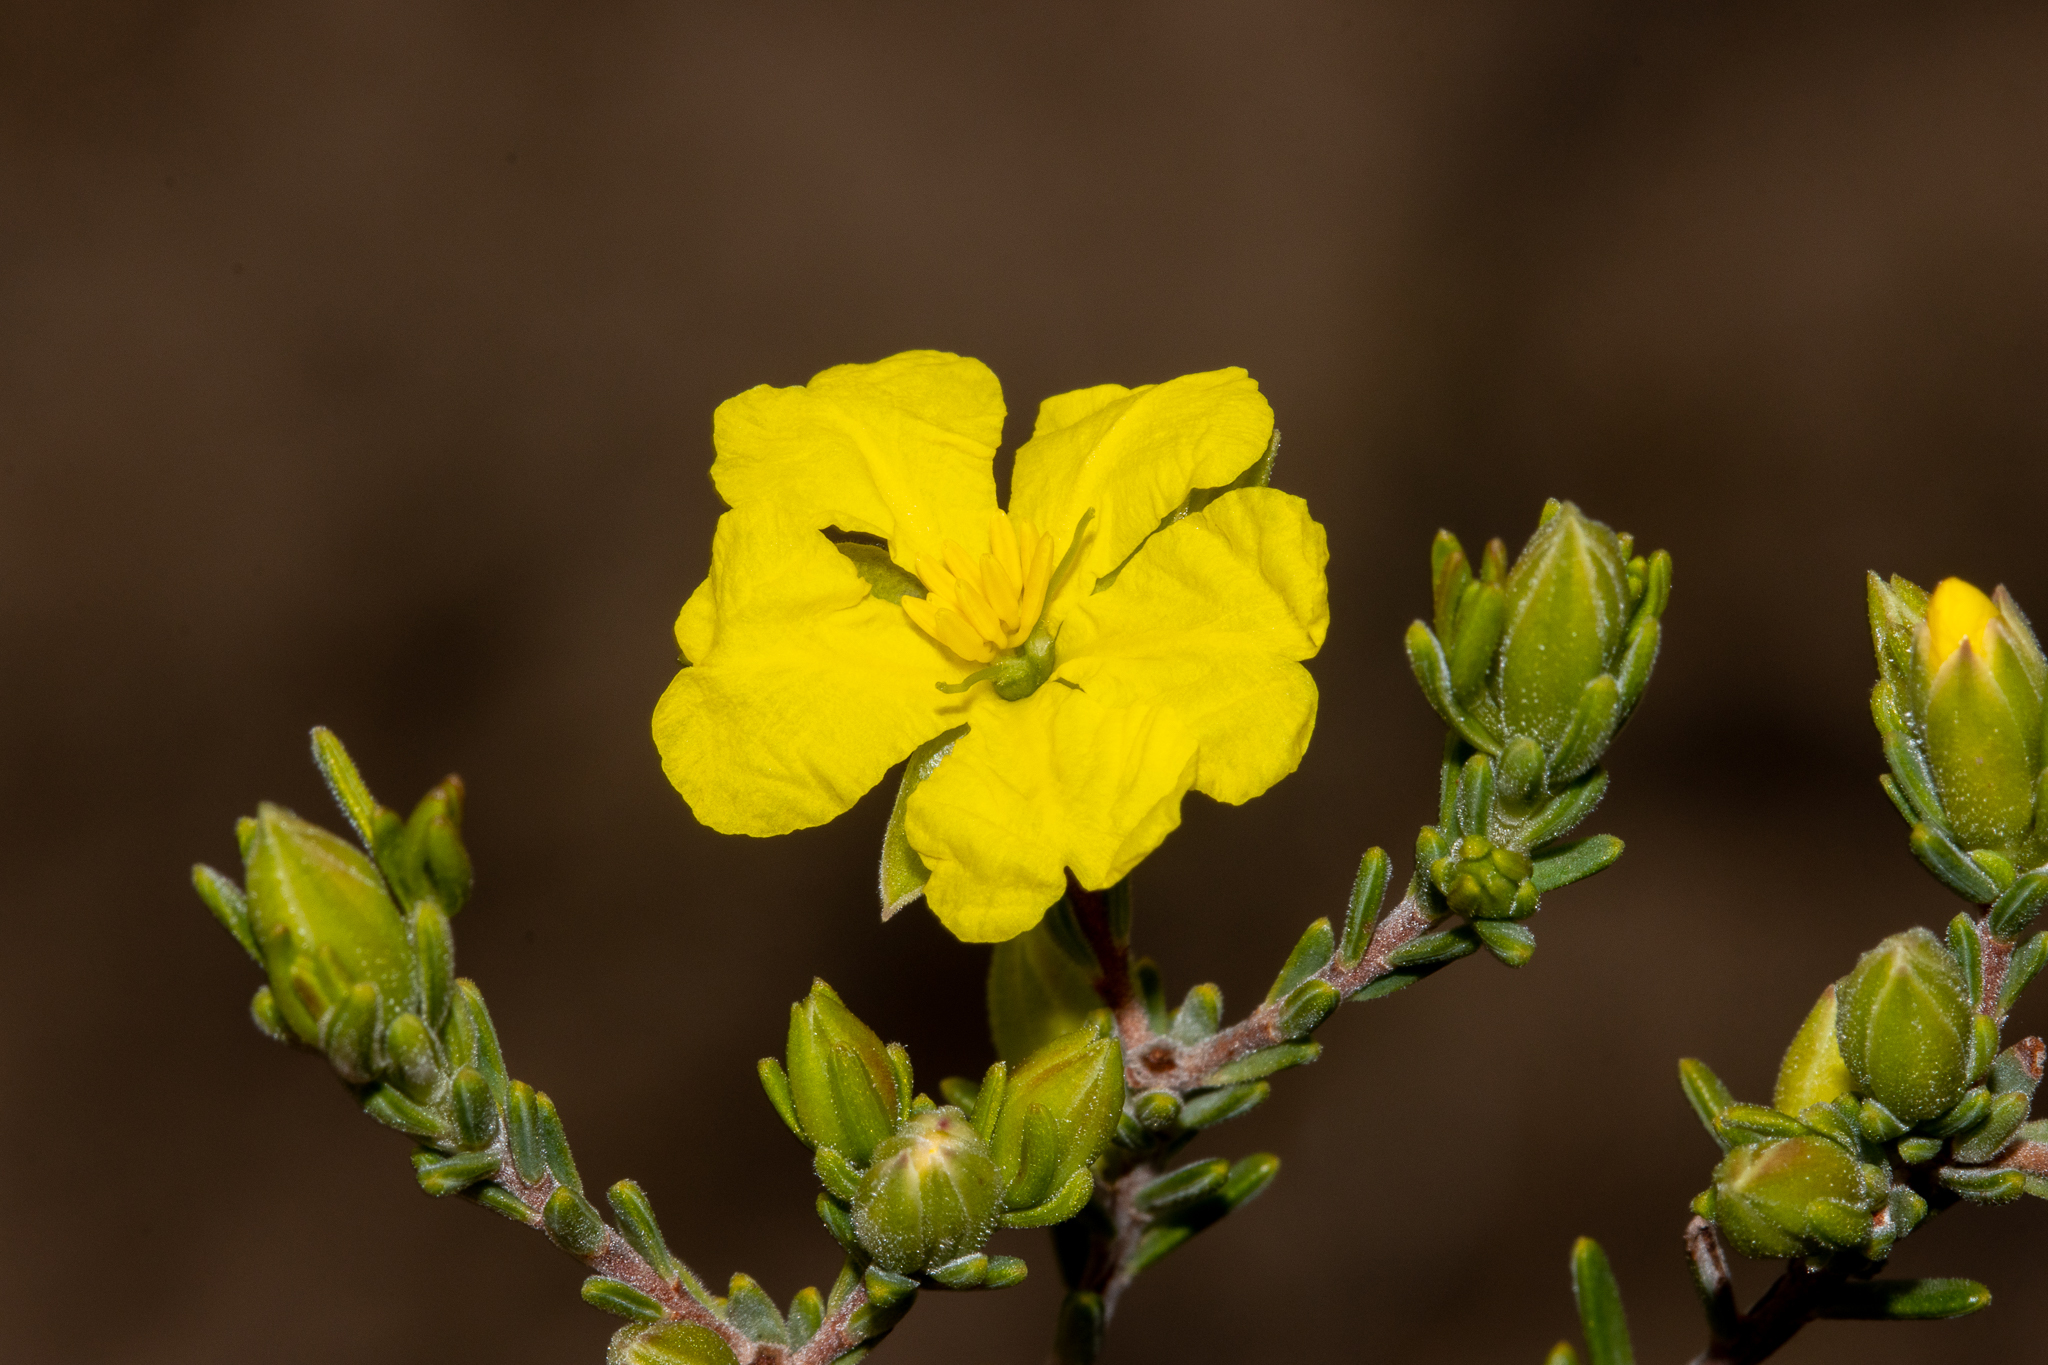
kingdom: Plantae
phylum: Tracheophyta
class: Magnoliopsida
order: Dilleniales
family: Dilleniaceae
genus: Hibbertia
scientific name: Hibbertia devitata
